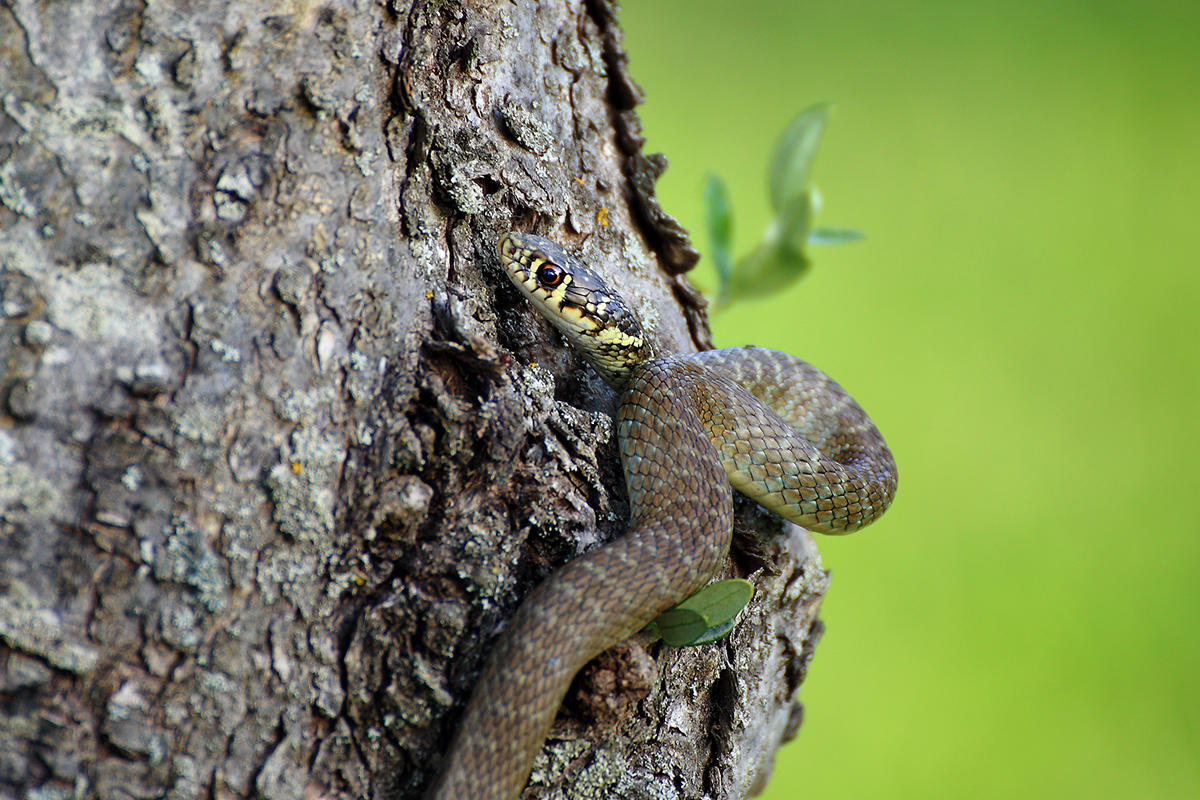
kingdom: Animalia
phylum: Chordata
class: Squamata
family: Colubridae
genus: Hierophis
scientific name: Hierophis viridiflavus
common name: Green whip snake
